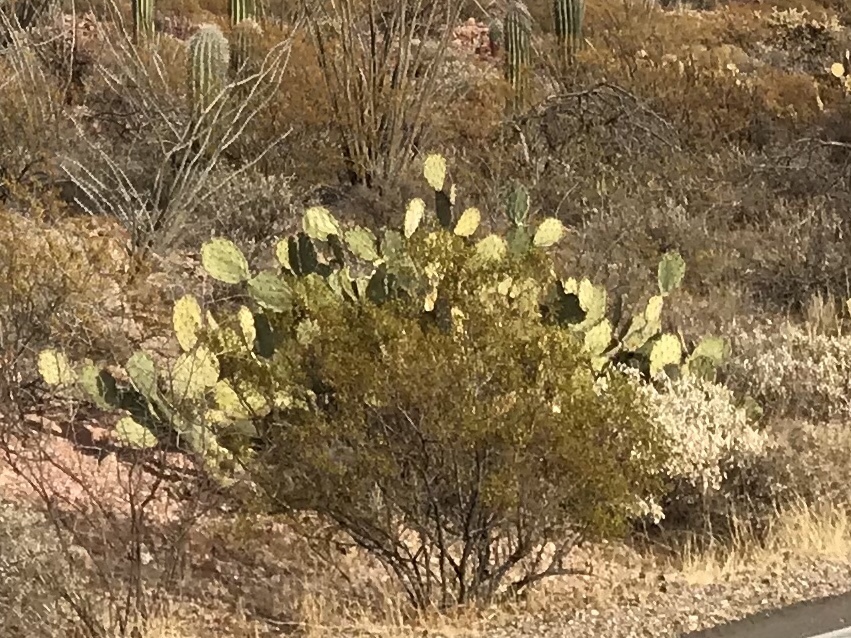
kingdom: Plantae
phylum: Tracheophyta
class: Magnoliopsida
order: Zygophyllales
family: Zygophyllaceae
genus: Larrea
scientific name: Larrea tridentata
